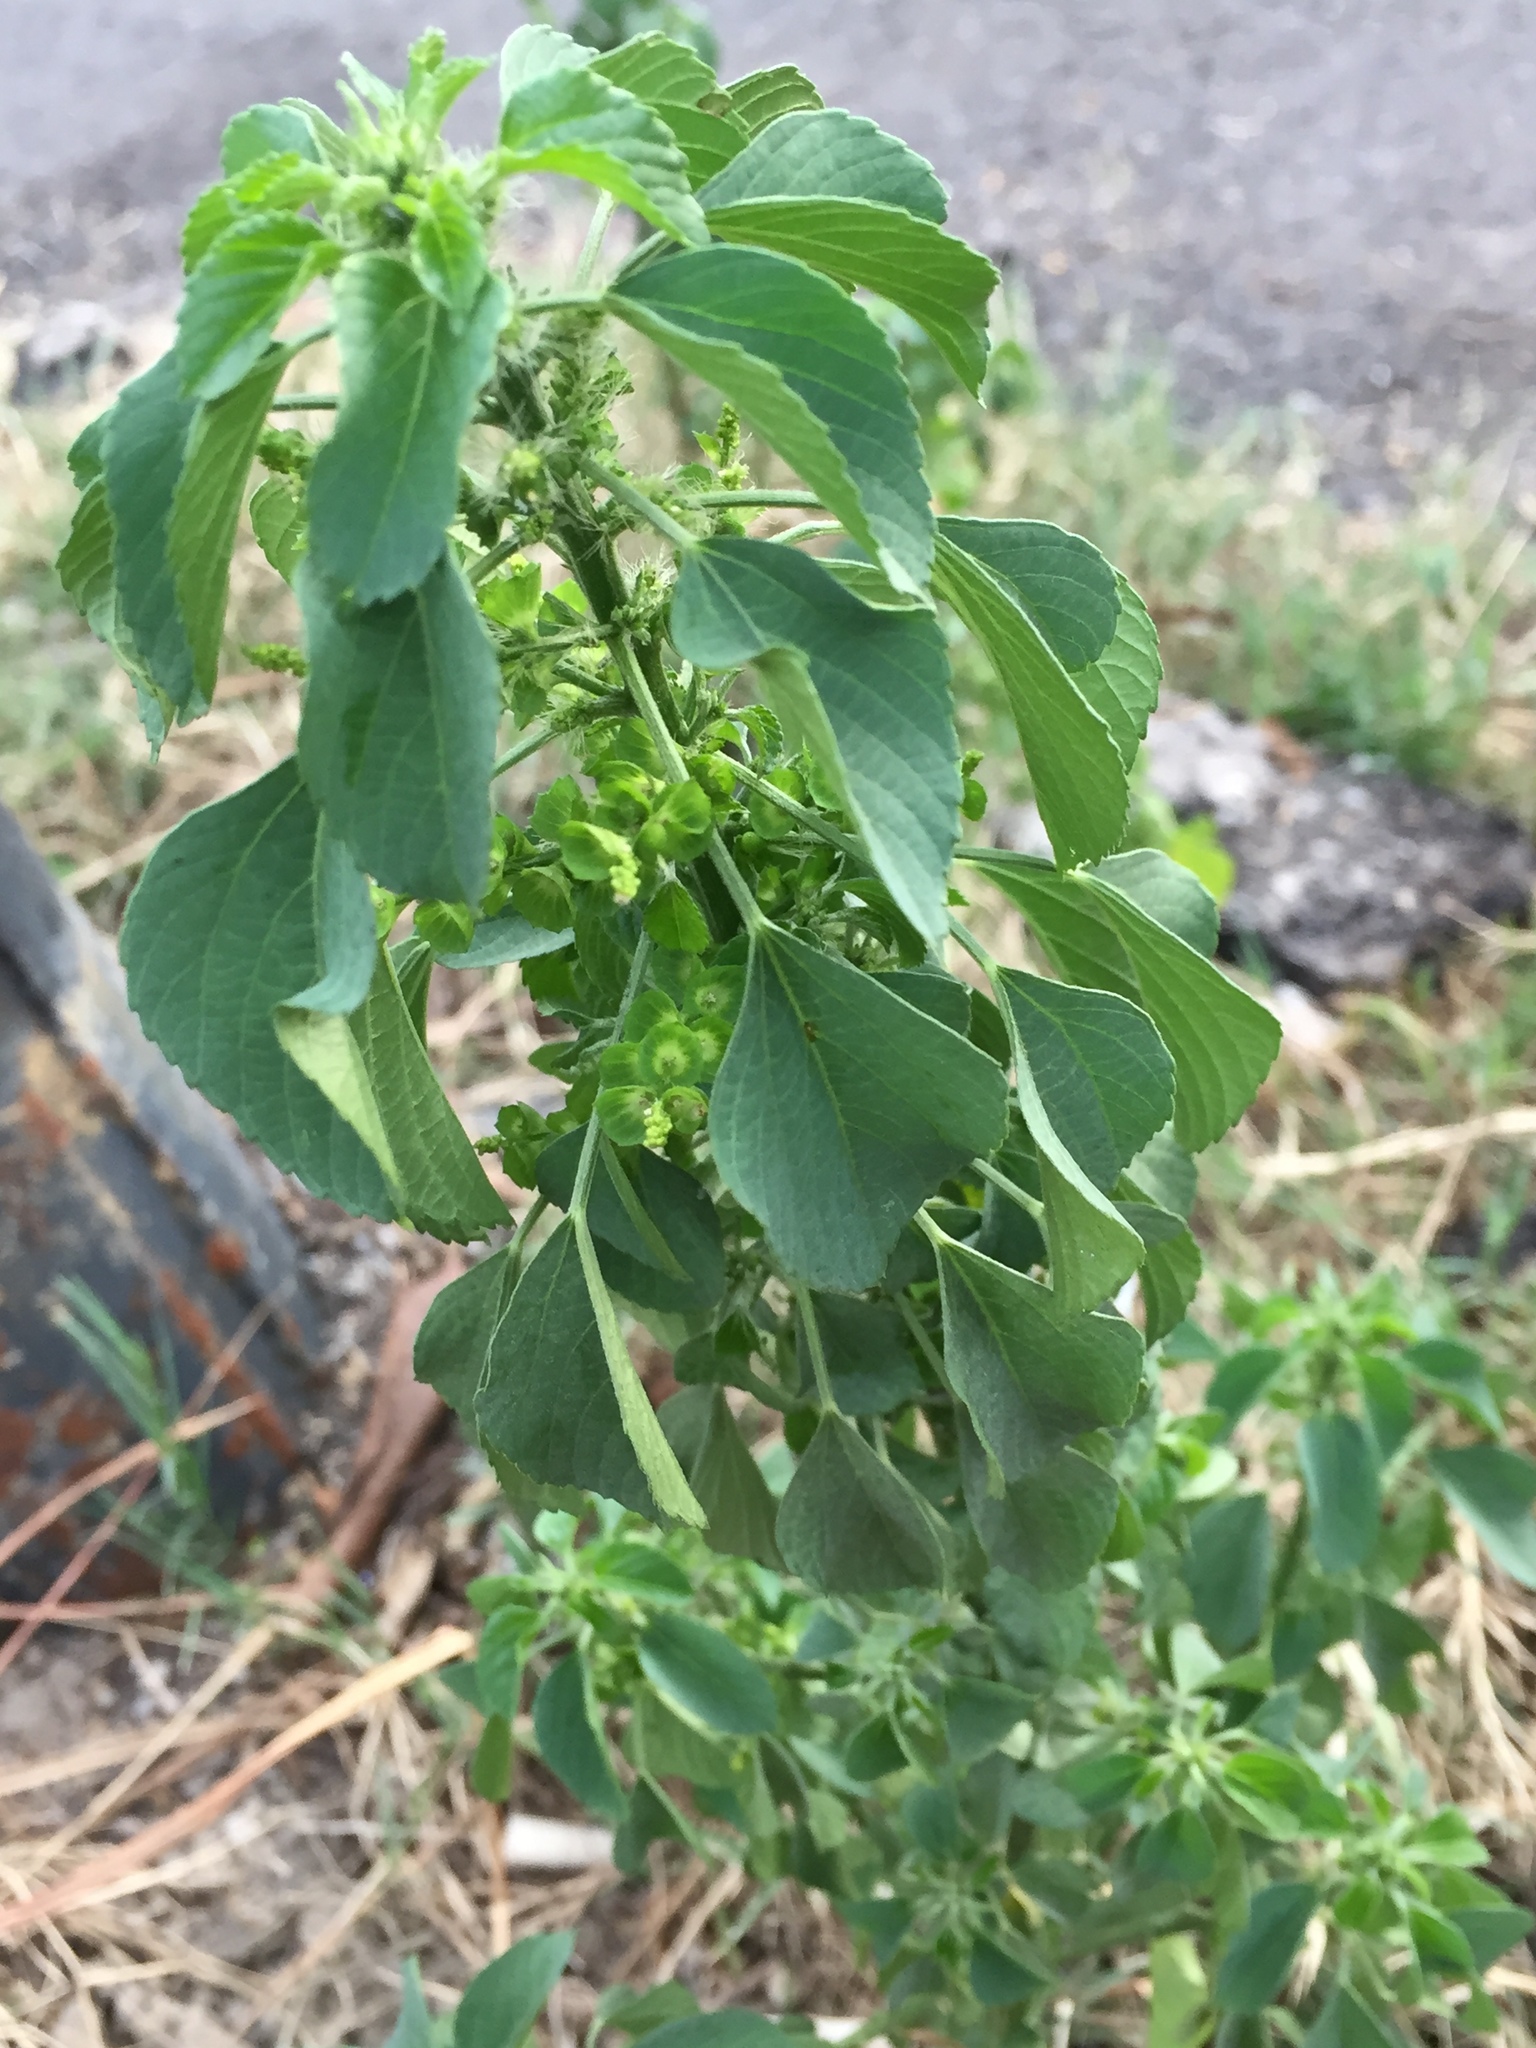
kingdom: Plantae
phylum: Tracheophyta
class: Magnoliopsida
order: Malpighiales
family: Euphorbiaceae
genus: Acalypha
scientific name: Acalypha indica
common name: Indian acalypha
